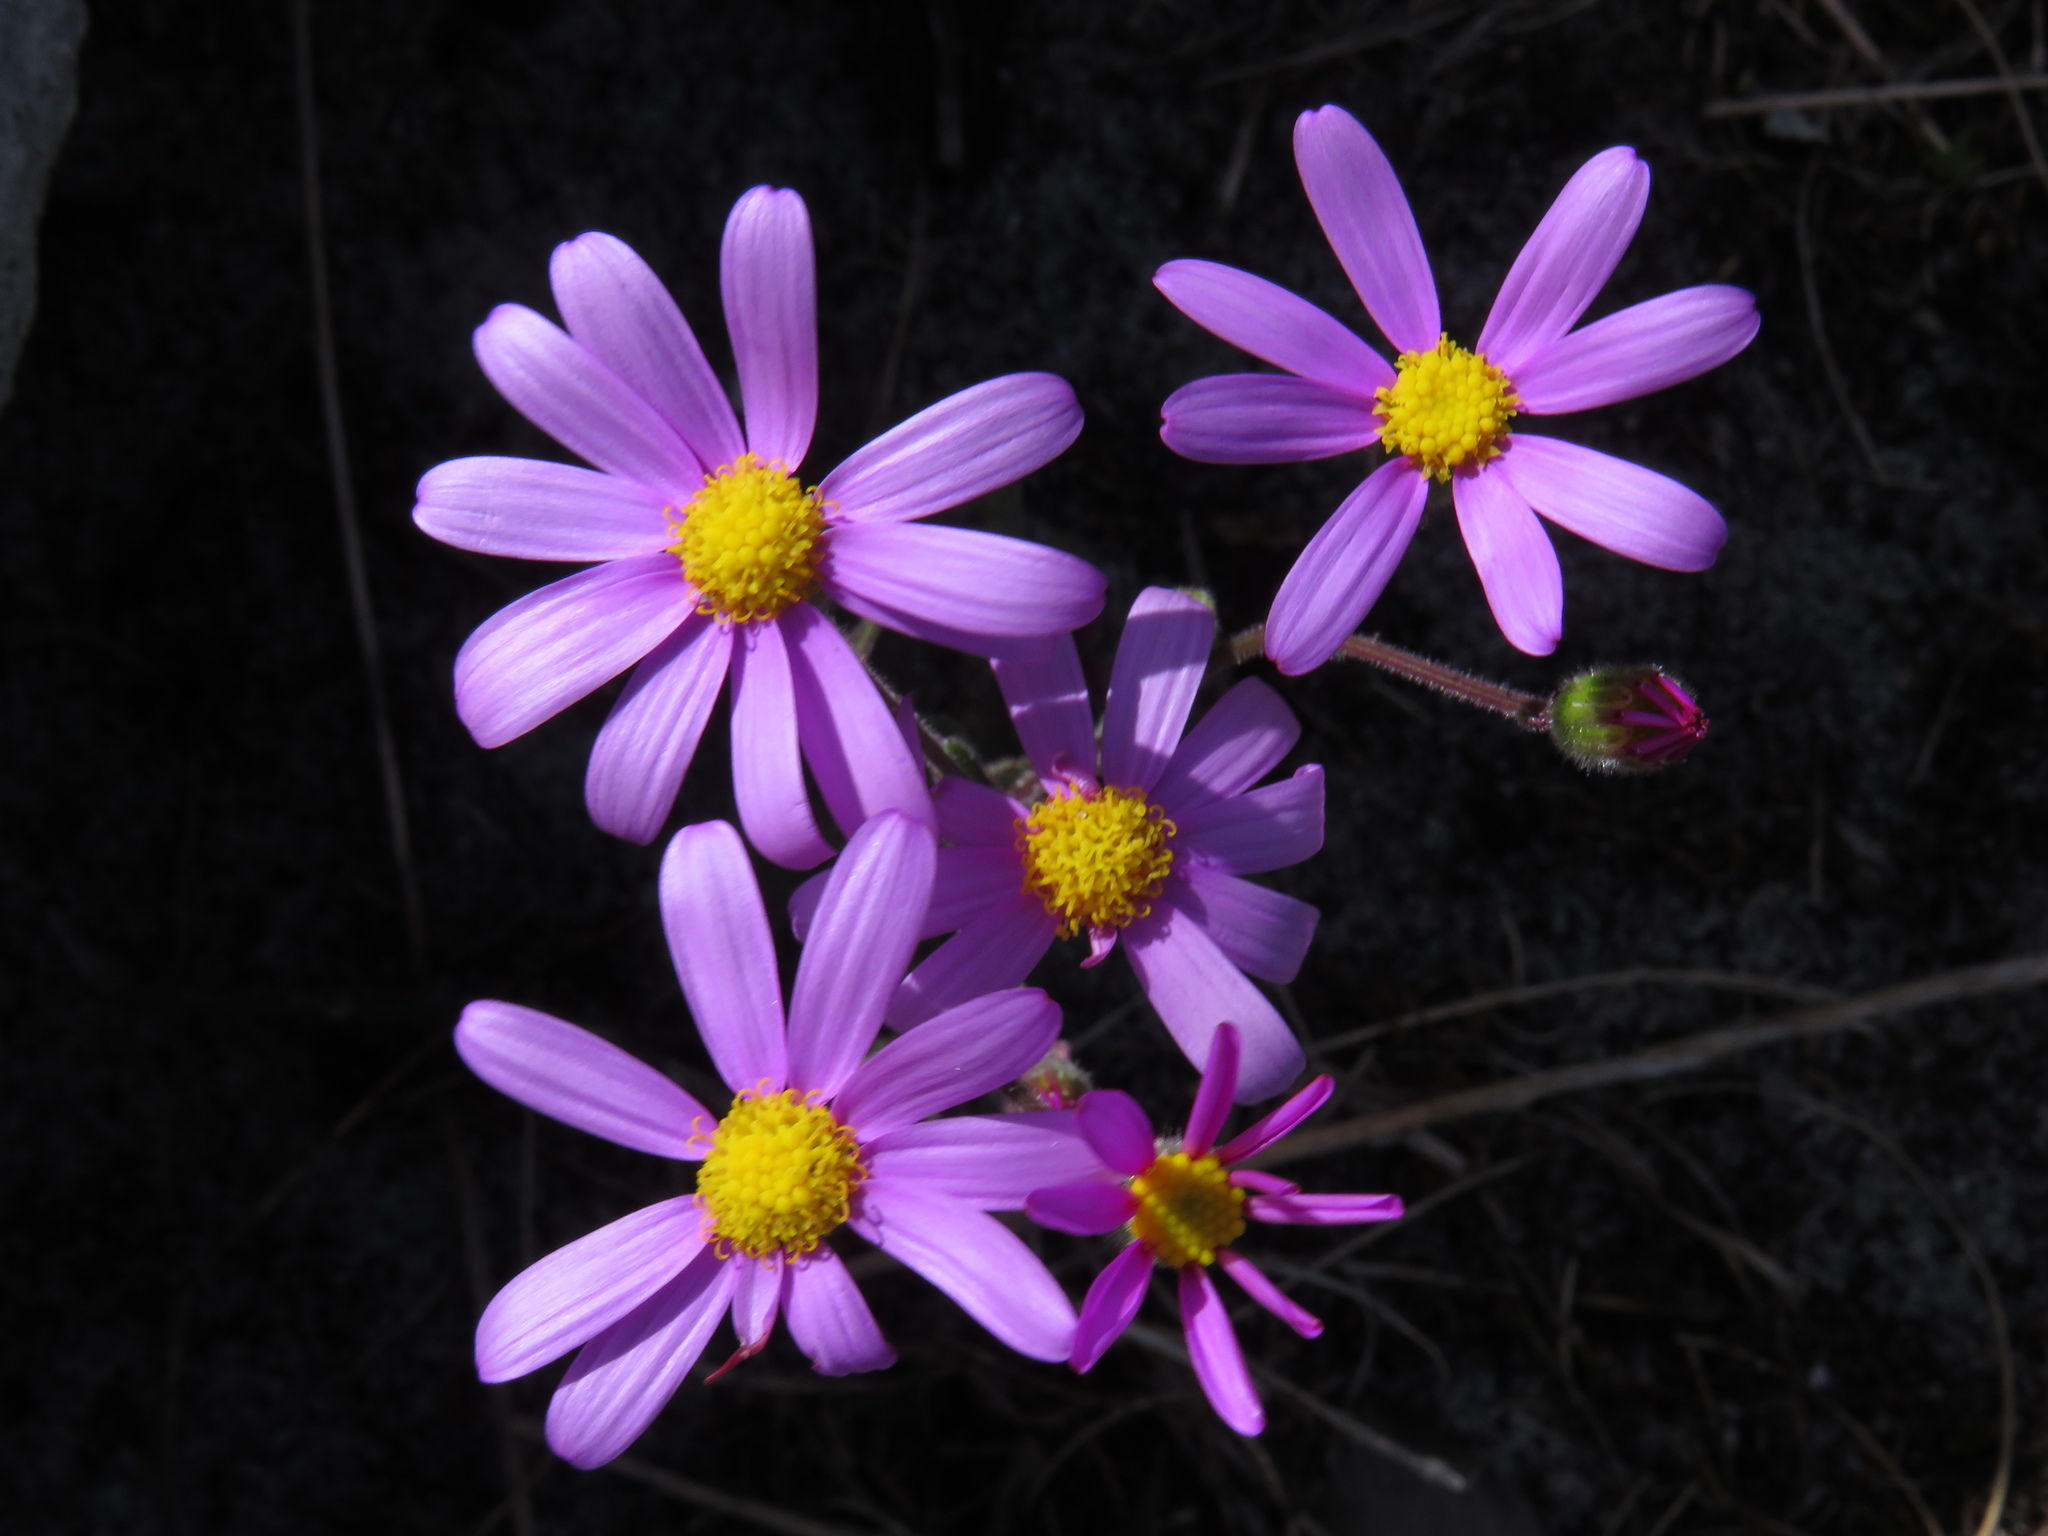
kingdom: Plantae
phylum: Tracheophyta
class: Magnoliopsida
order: Asterales
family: Asteraceae
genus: Senecio
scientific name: Senecio arenarius
